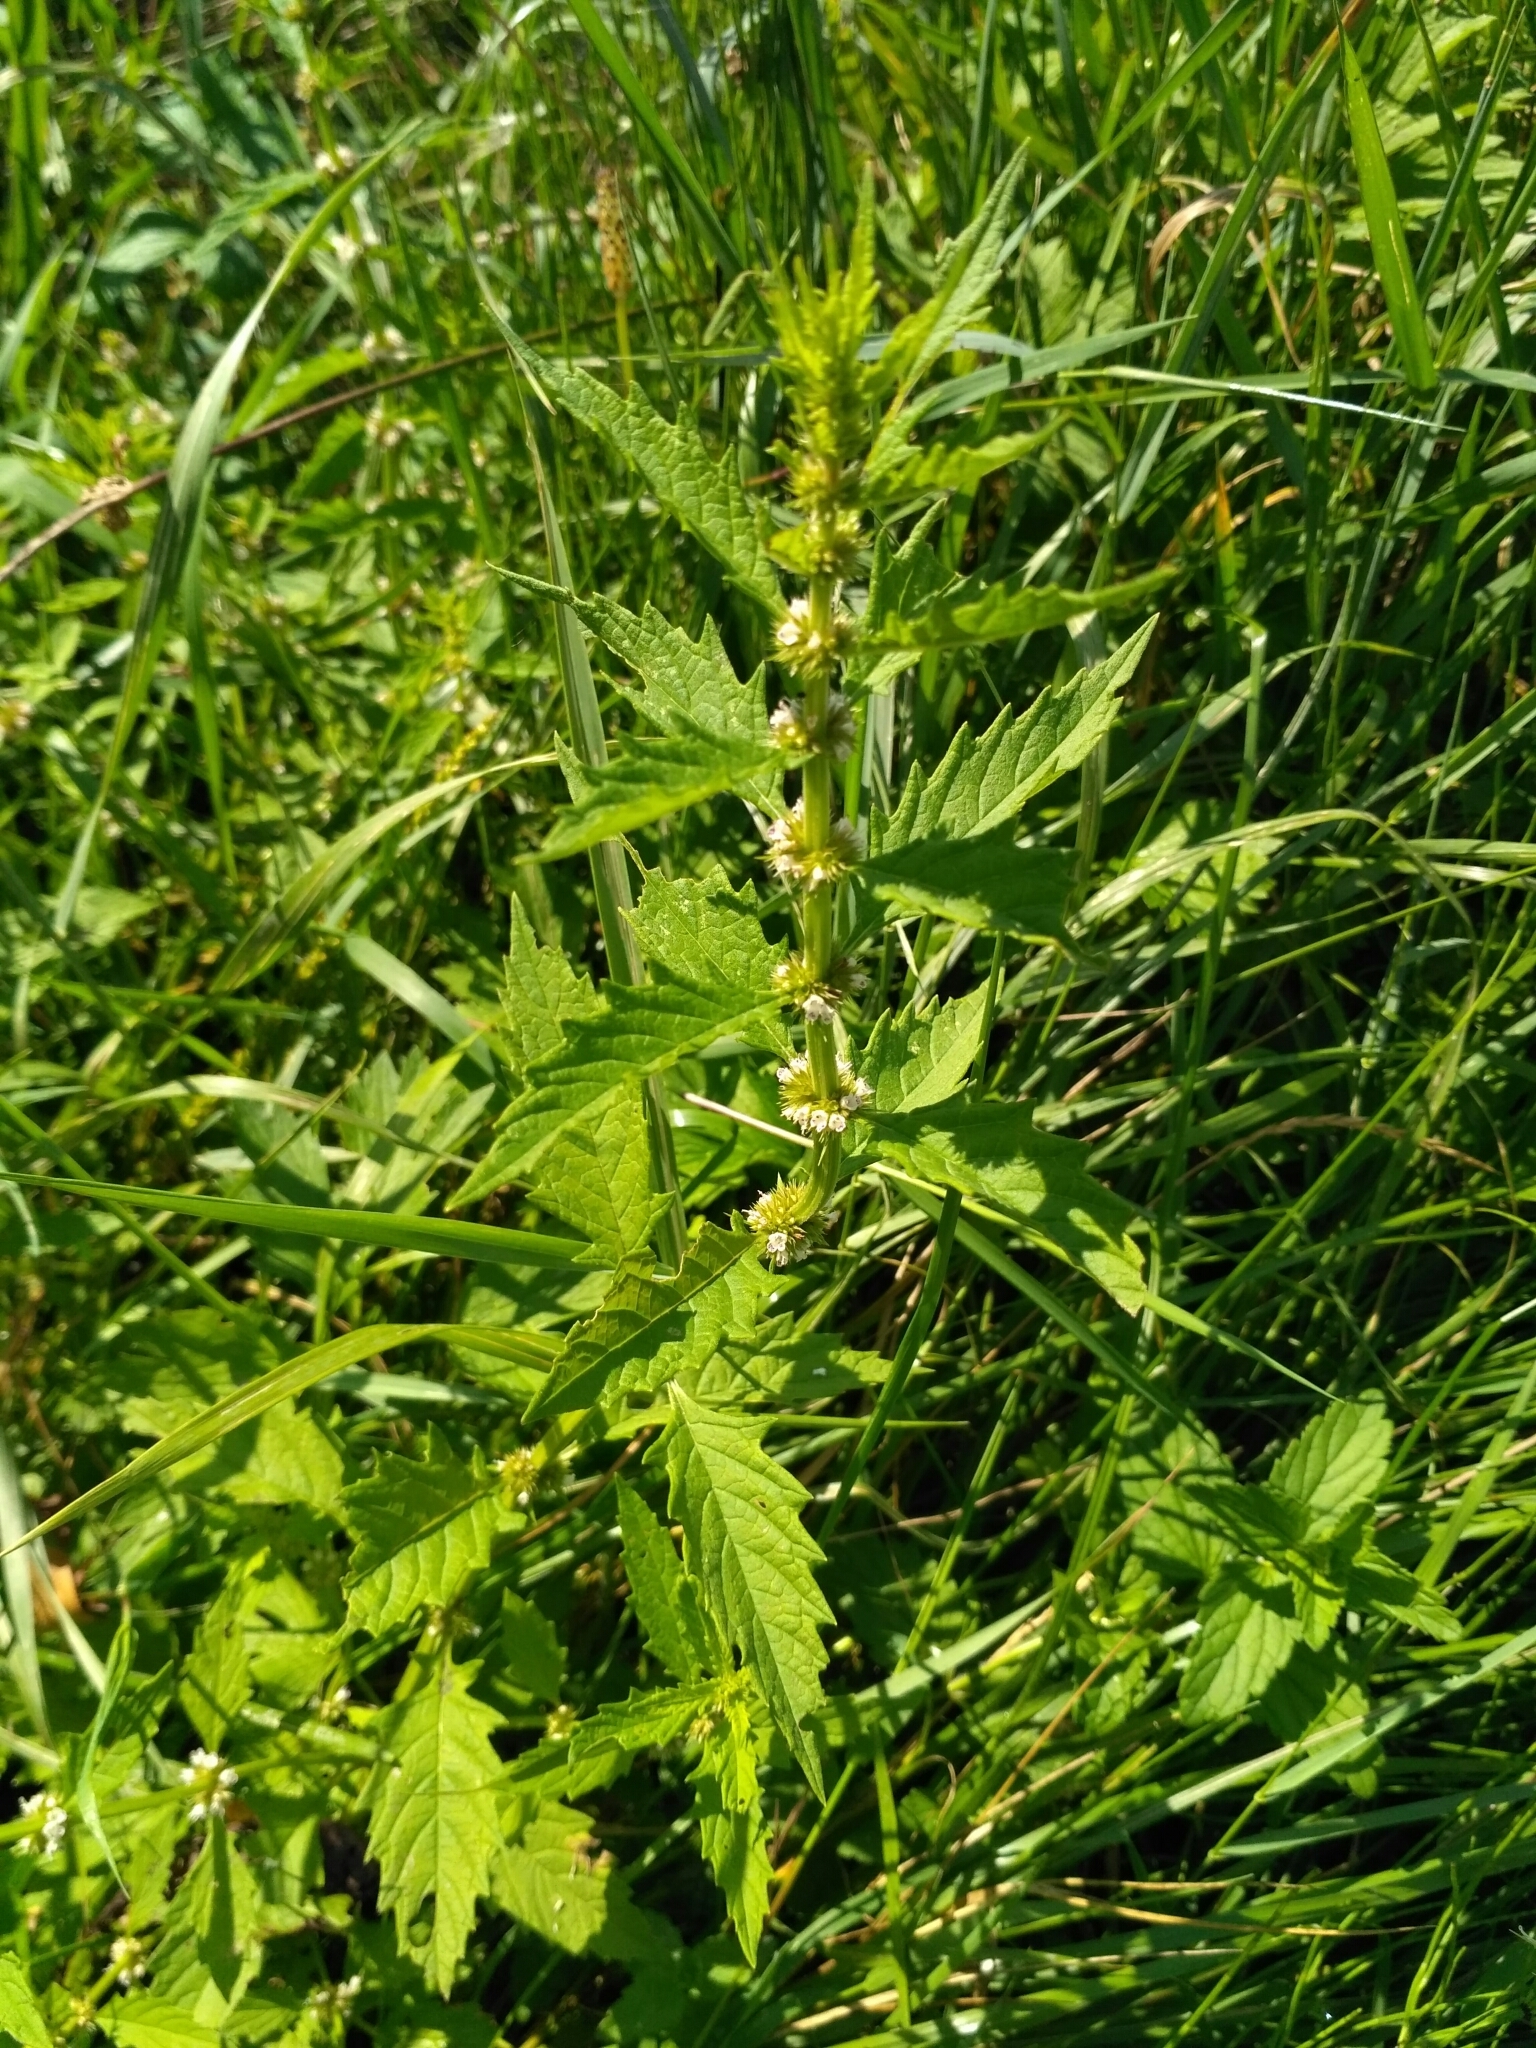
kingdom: Plantae
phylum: Tracheophyta
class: Magnoliopsida
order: Lamiales
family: Lamiaceae
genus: Lycopus
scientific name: Lycopus europaeus
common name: European bugleweed
